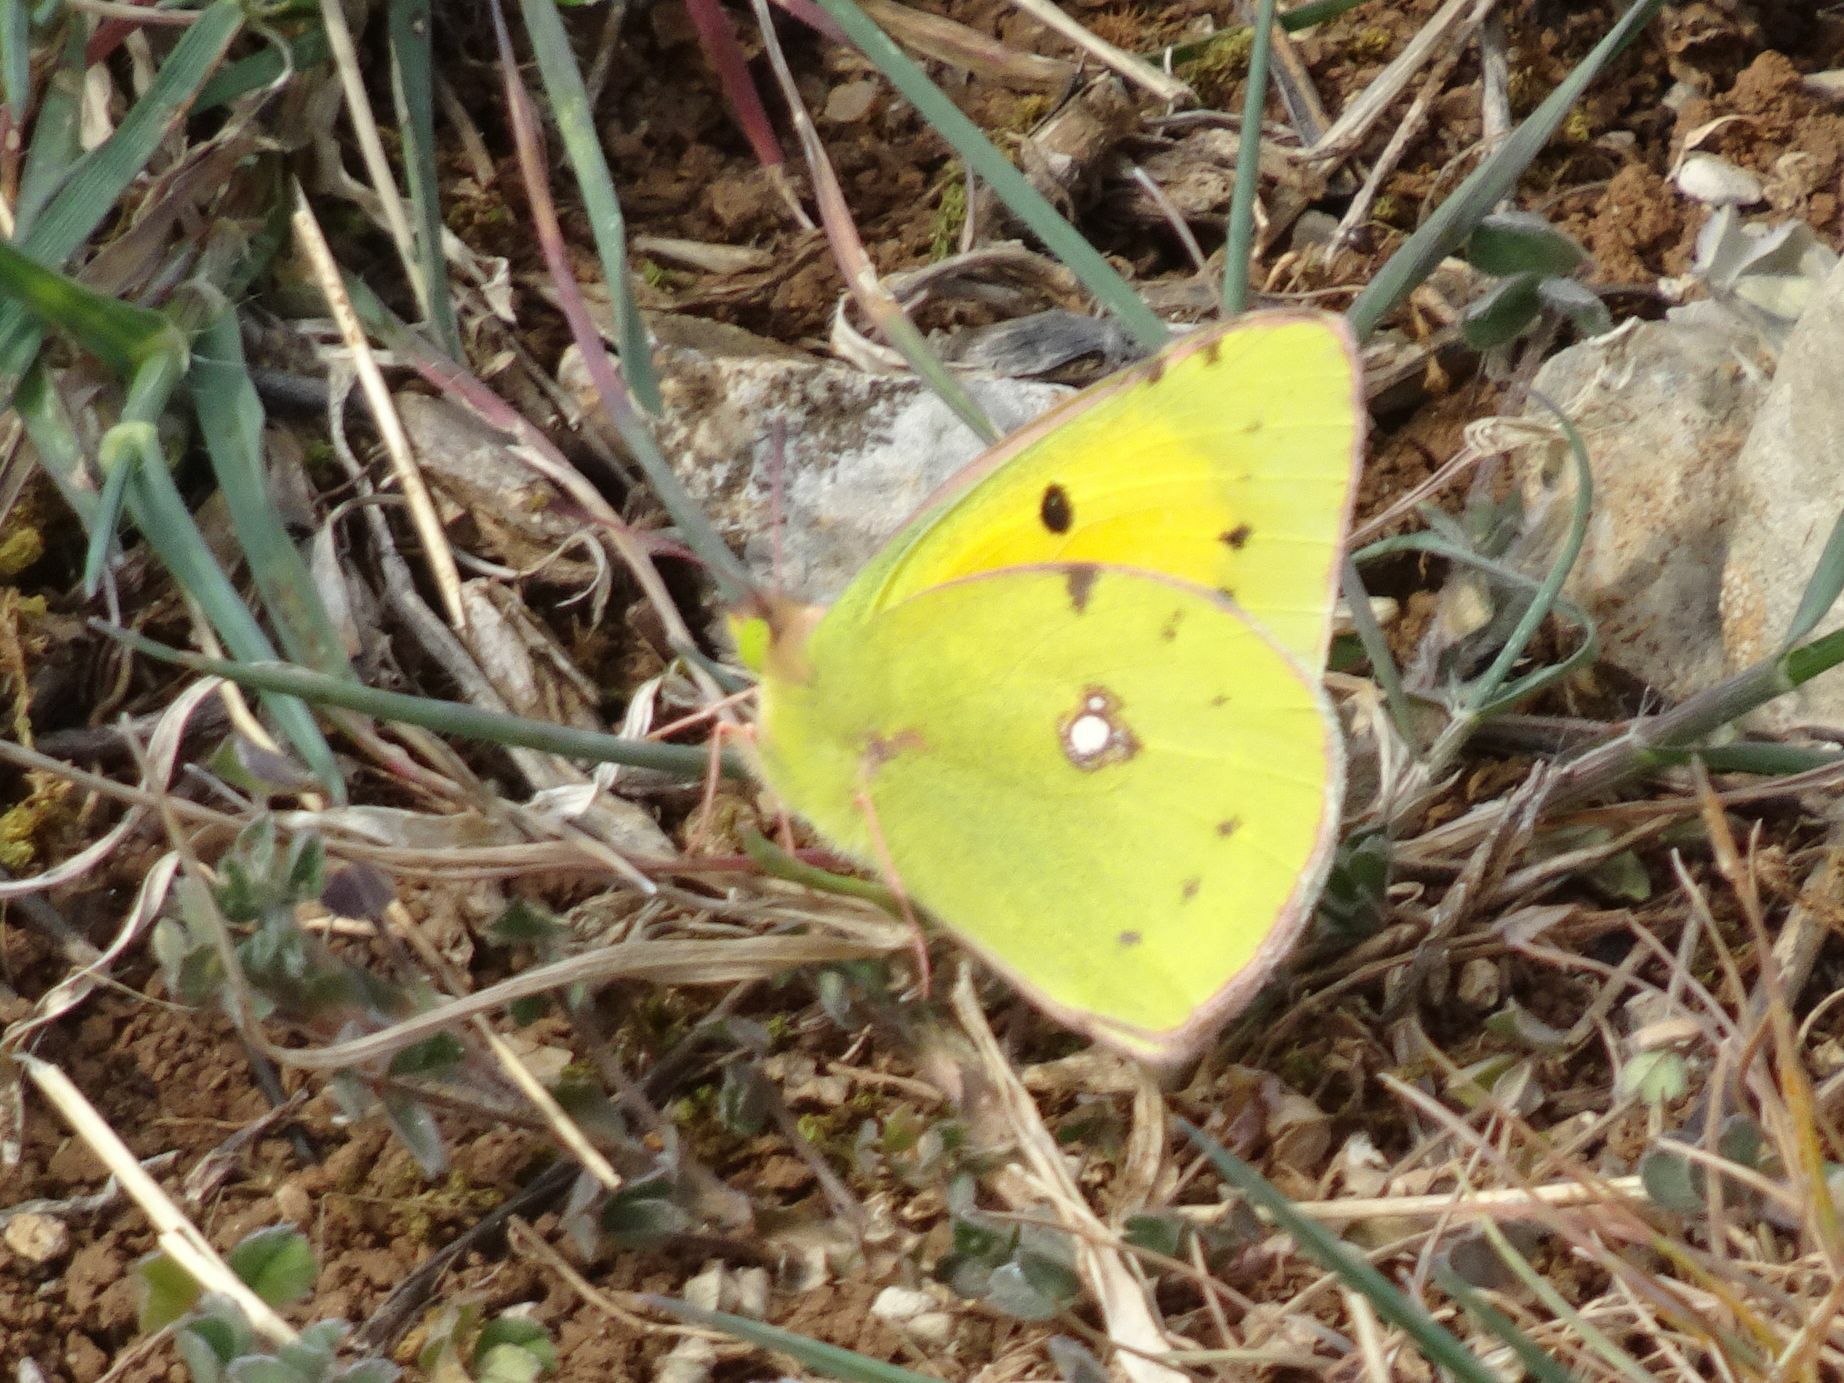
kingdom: Animalia
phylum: Arthropoda
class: Insecta
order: Lepidoptera
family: Pieridae
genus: Colias
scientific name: Colias croceus
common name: Clouded yellow
